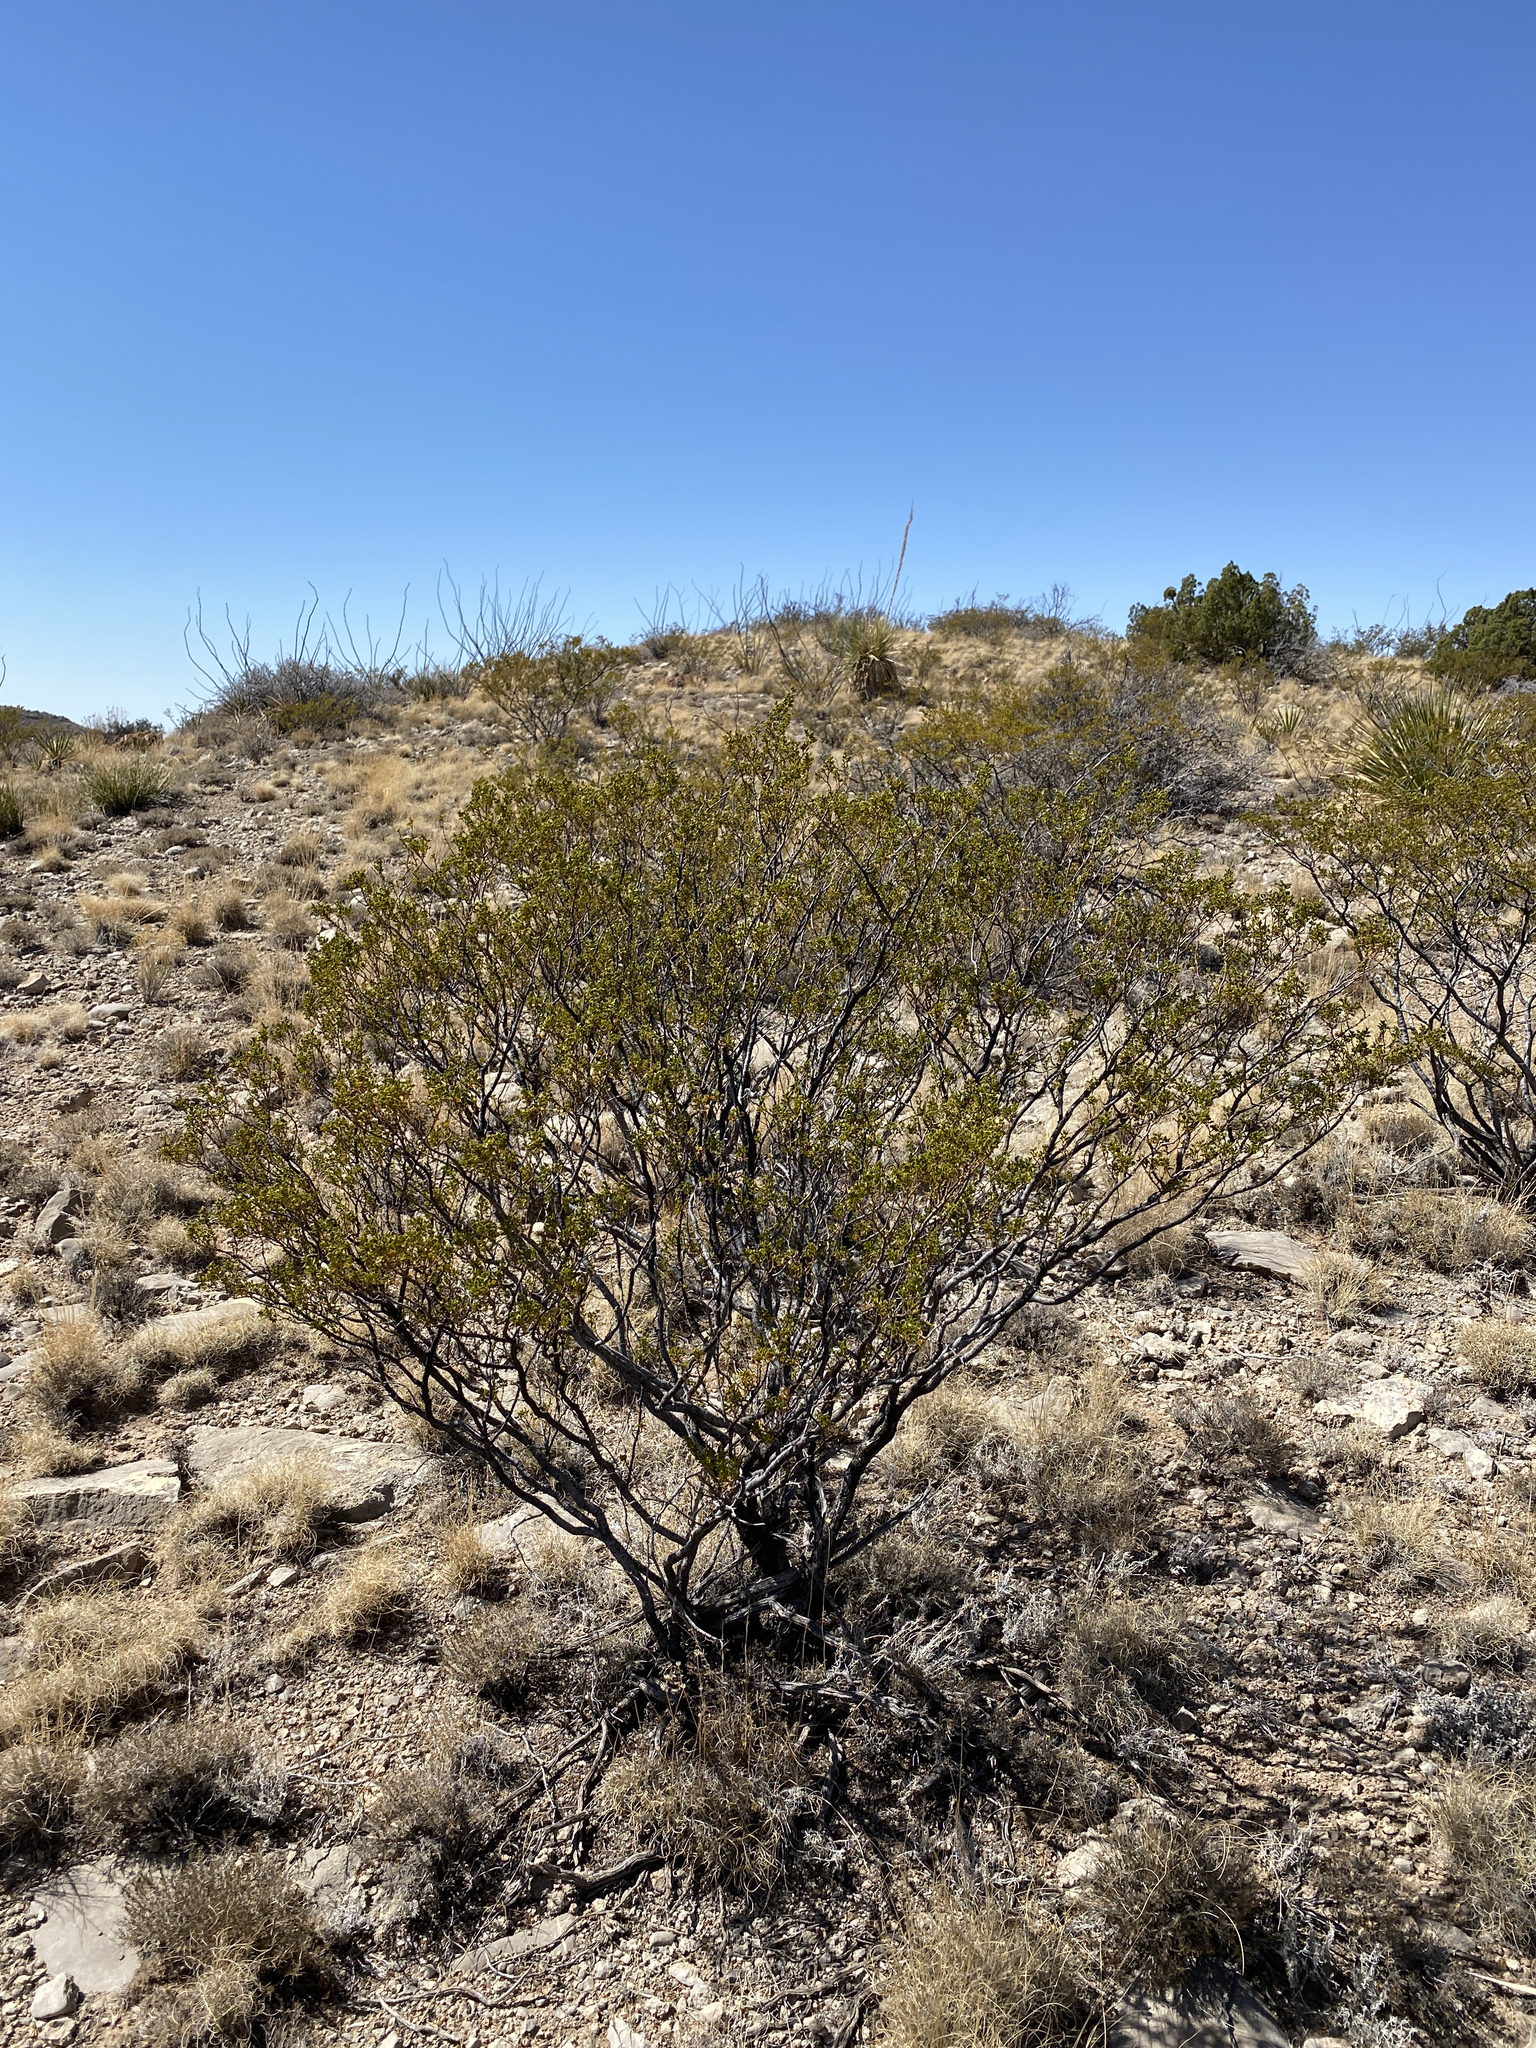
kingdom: Plantae
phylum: Tracheophyta
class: Magnoliopsida
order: Zygophyllales
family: Zygophyllaceae
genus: Larrea
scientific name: Larrea tridentata
